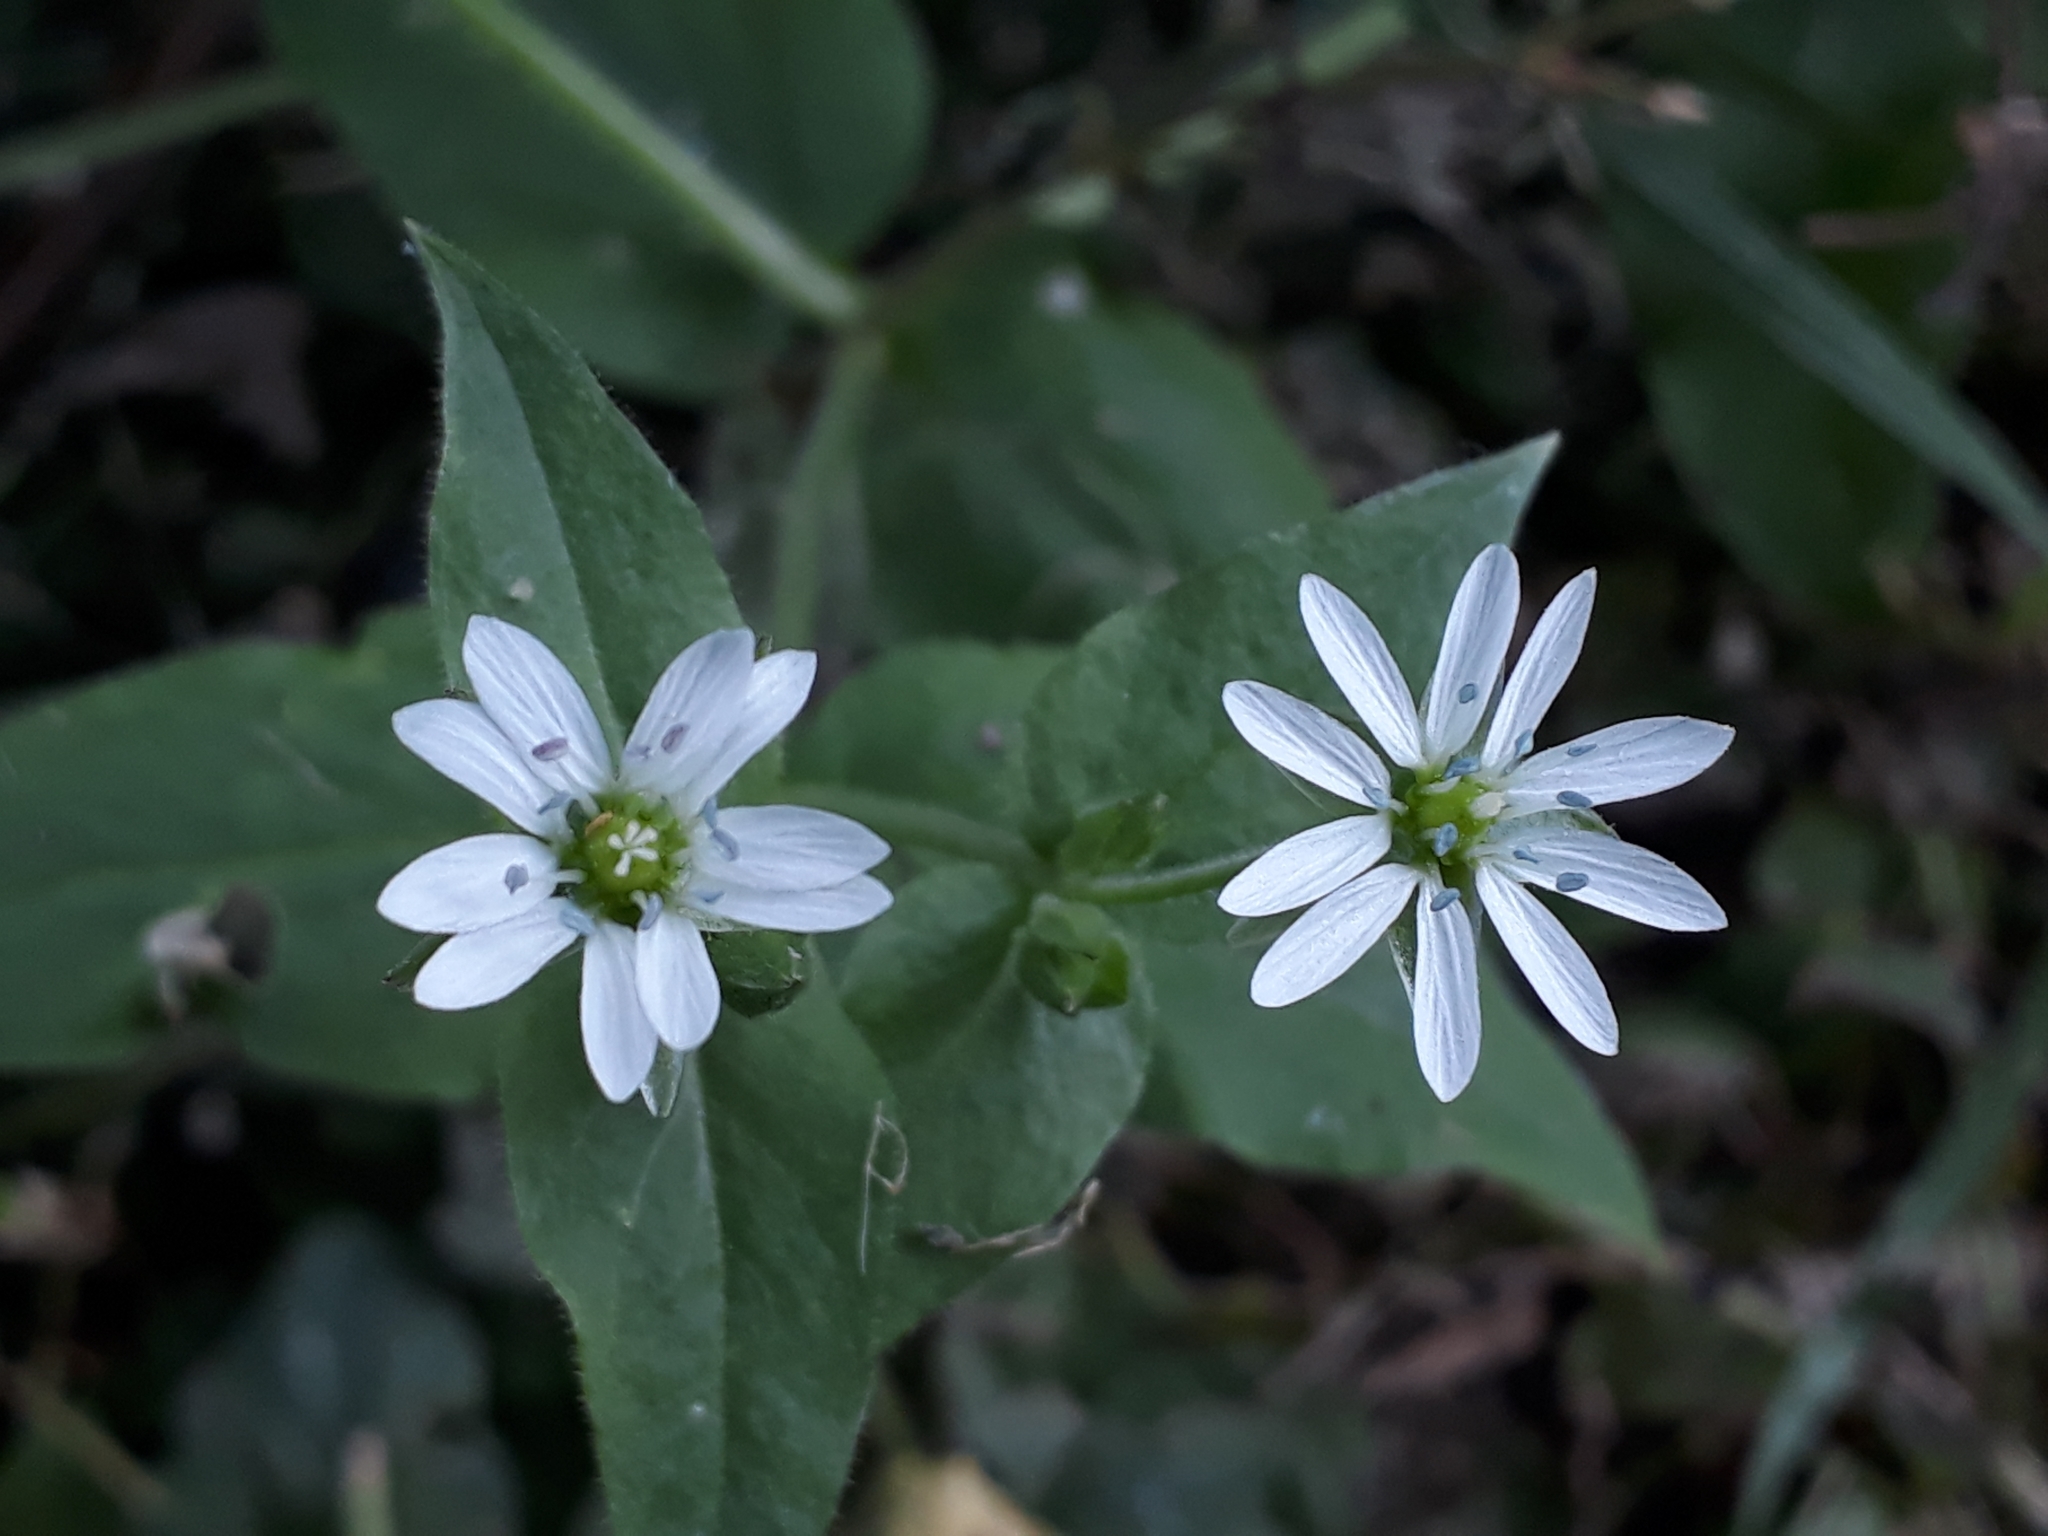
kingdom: Plantae
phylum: Tracheophyta
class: Magnoliopsida
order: Caryophyllales
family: Caryophyllaceae
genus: Stellaria
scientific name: Stellaria aquatica
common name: Water chickweed
